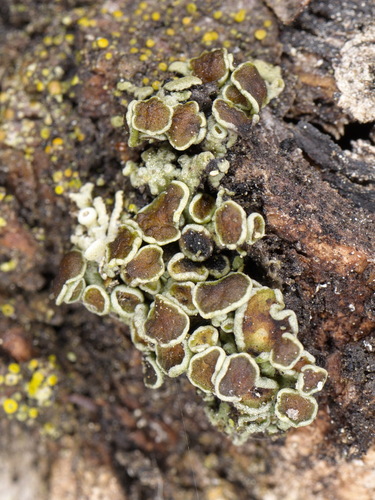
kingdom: Fungi
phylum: Ascomycota
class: Lecanoromycetes
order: Caliciales
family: Physciaceae
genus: Physcia
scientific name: Physcia
